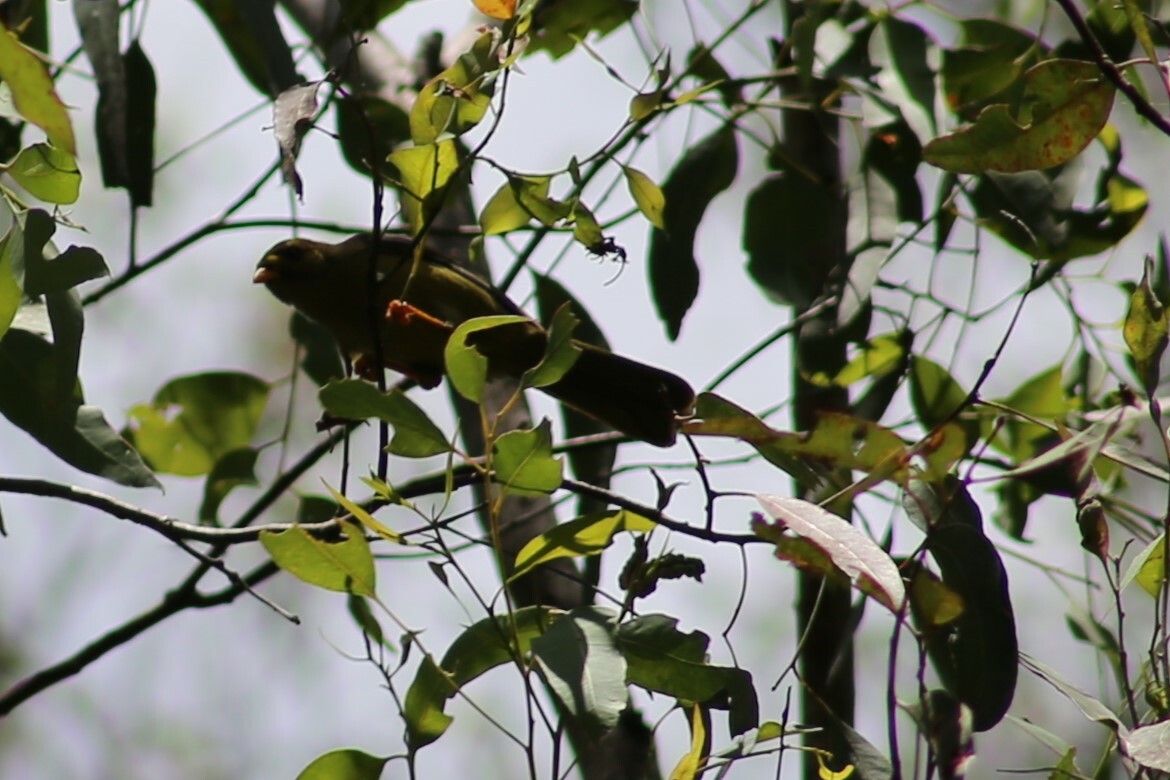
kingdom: Animalia
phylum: Chordata
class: Aves
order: Passeriformes
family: Meliphagidae
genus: Manorina
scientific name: Manorina melanophrys
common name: Bell miner
